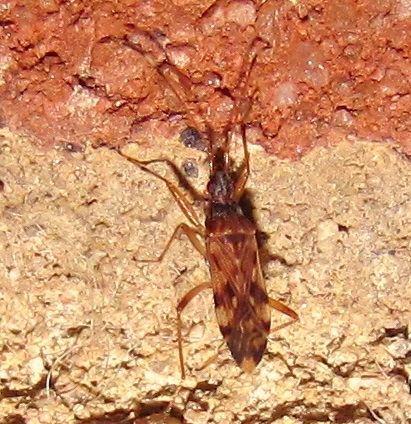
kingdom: Animalia
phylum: Arthropoda
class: Insecta
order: Hemiptera
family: Rhyparochromidae
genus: Ozophora
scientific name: Ozophora picturata
